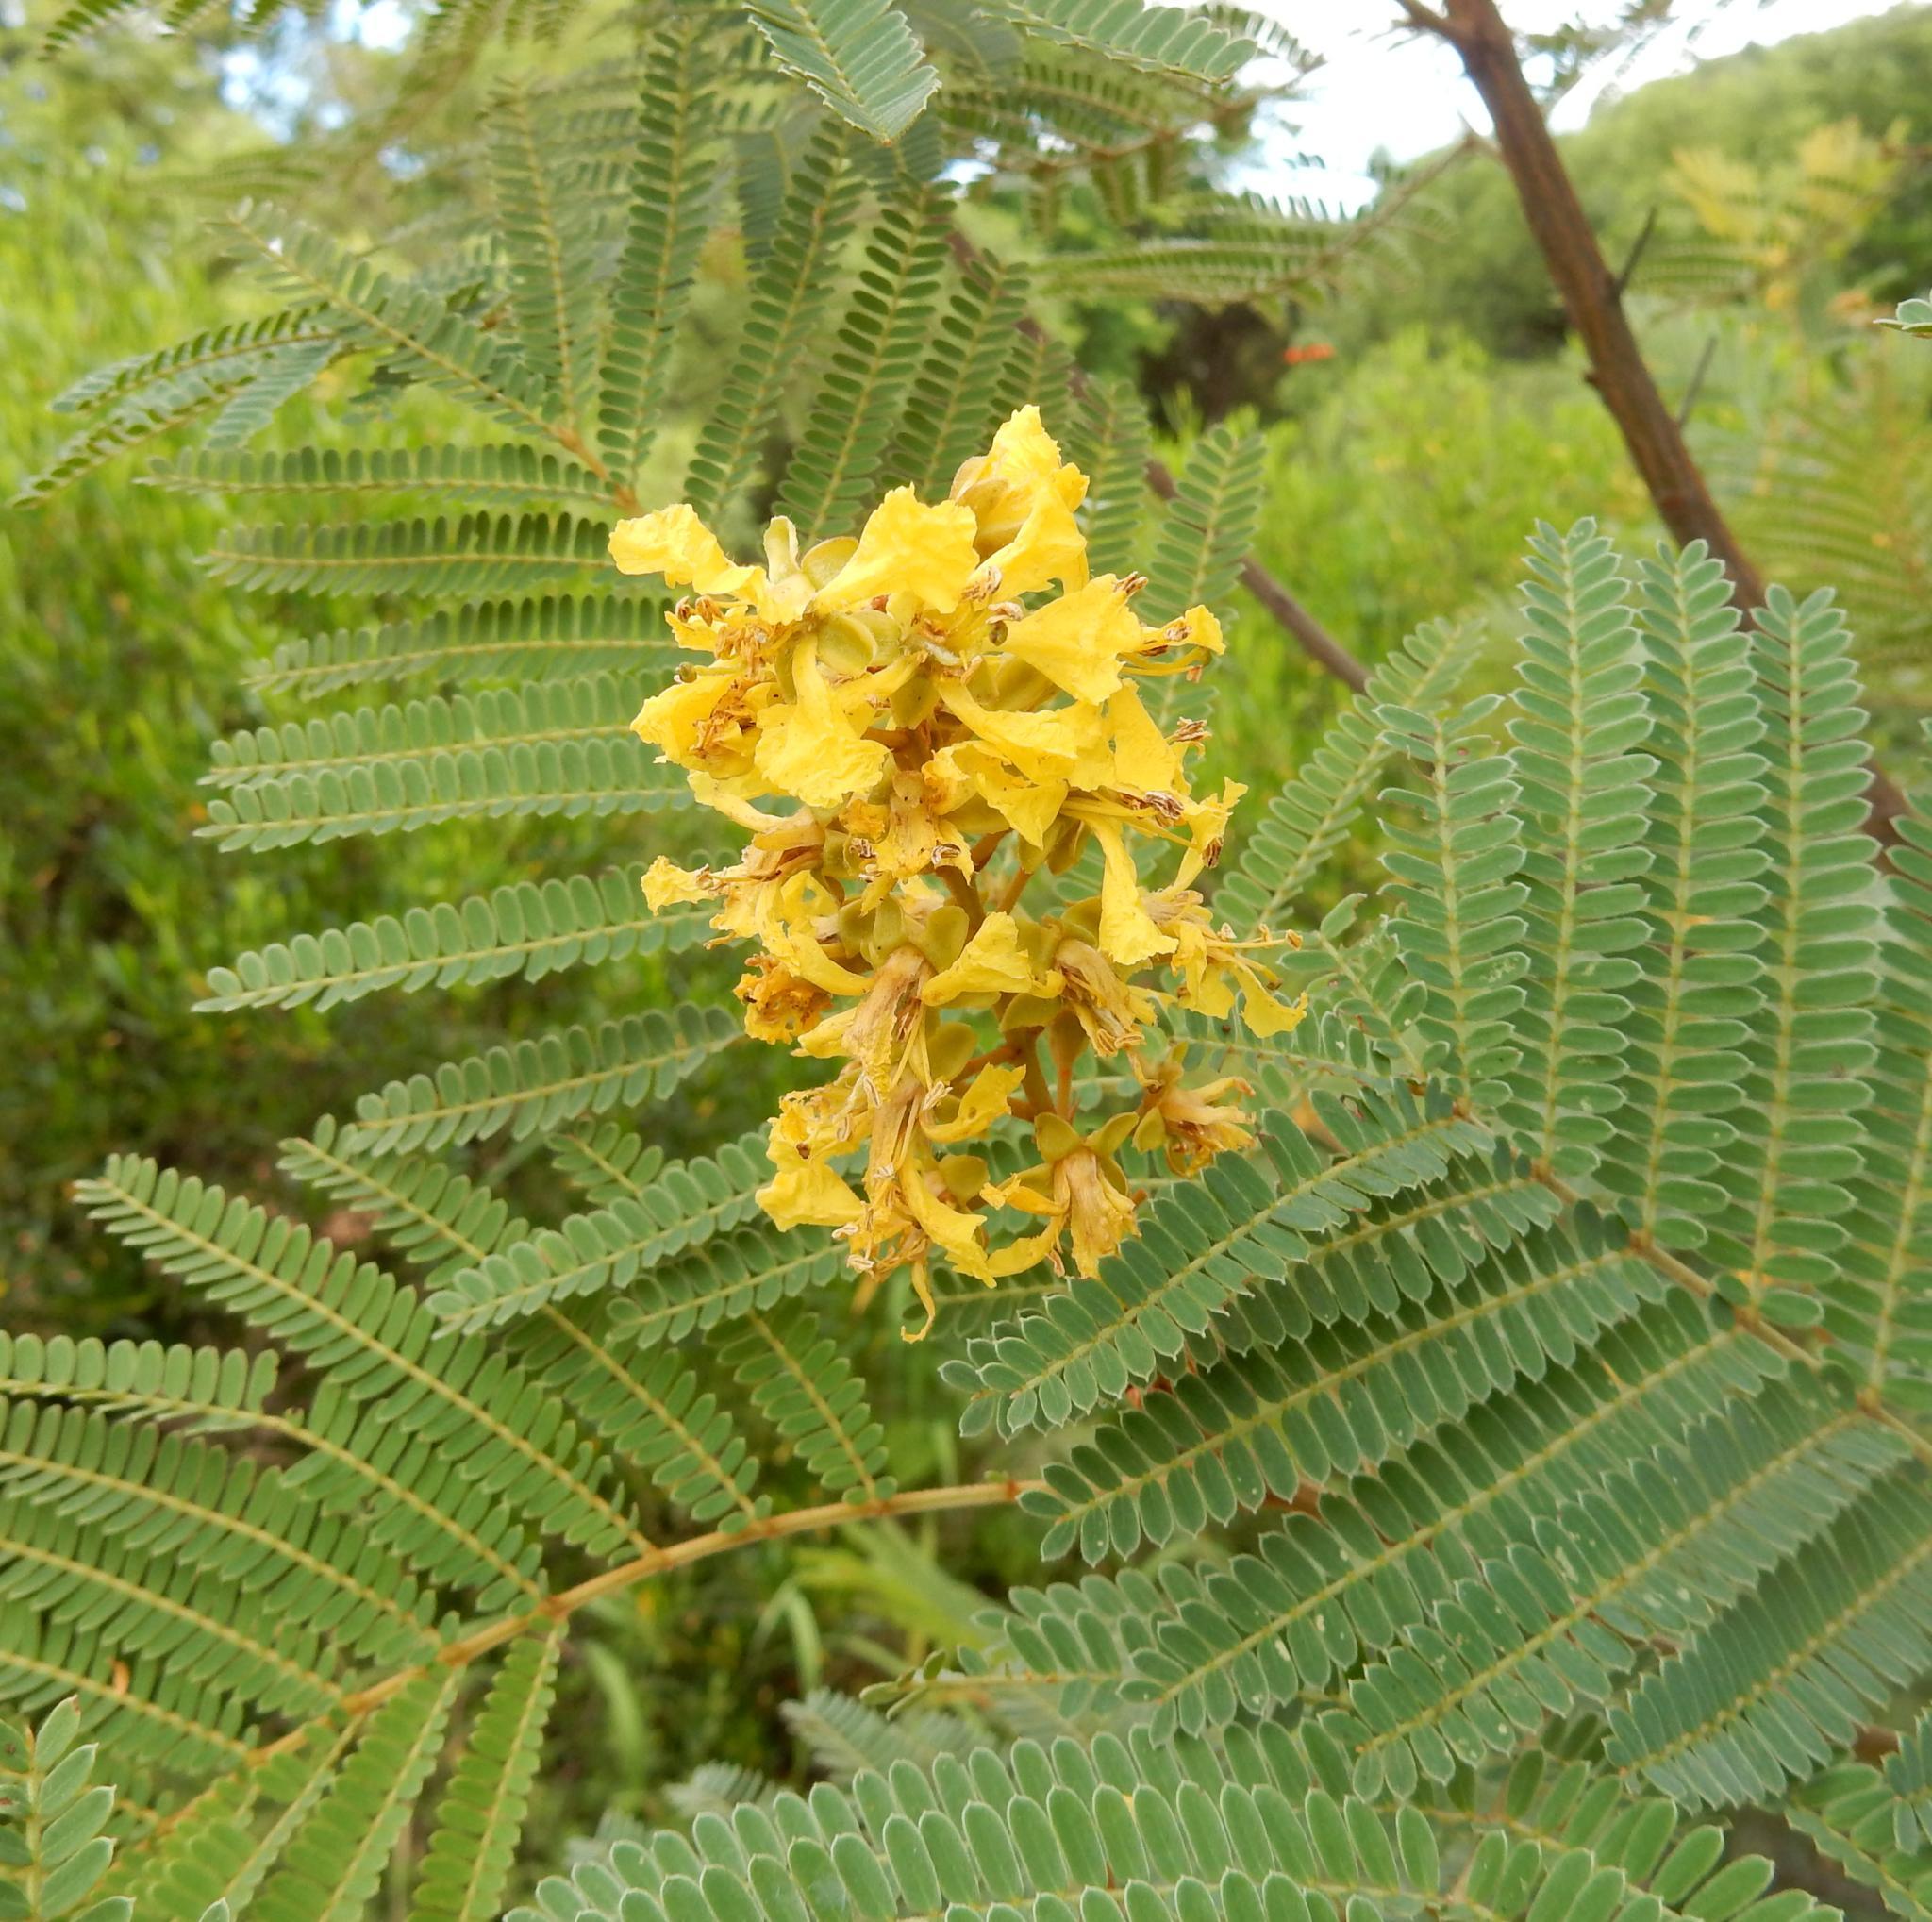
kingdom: Plantae
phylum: Tracheophyta
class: Magnoliopsida
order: Fabales
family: Fabaceae
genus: Peltophorum
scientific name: Peltophorum africanum
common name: African black wattle
